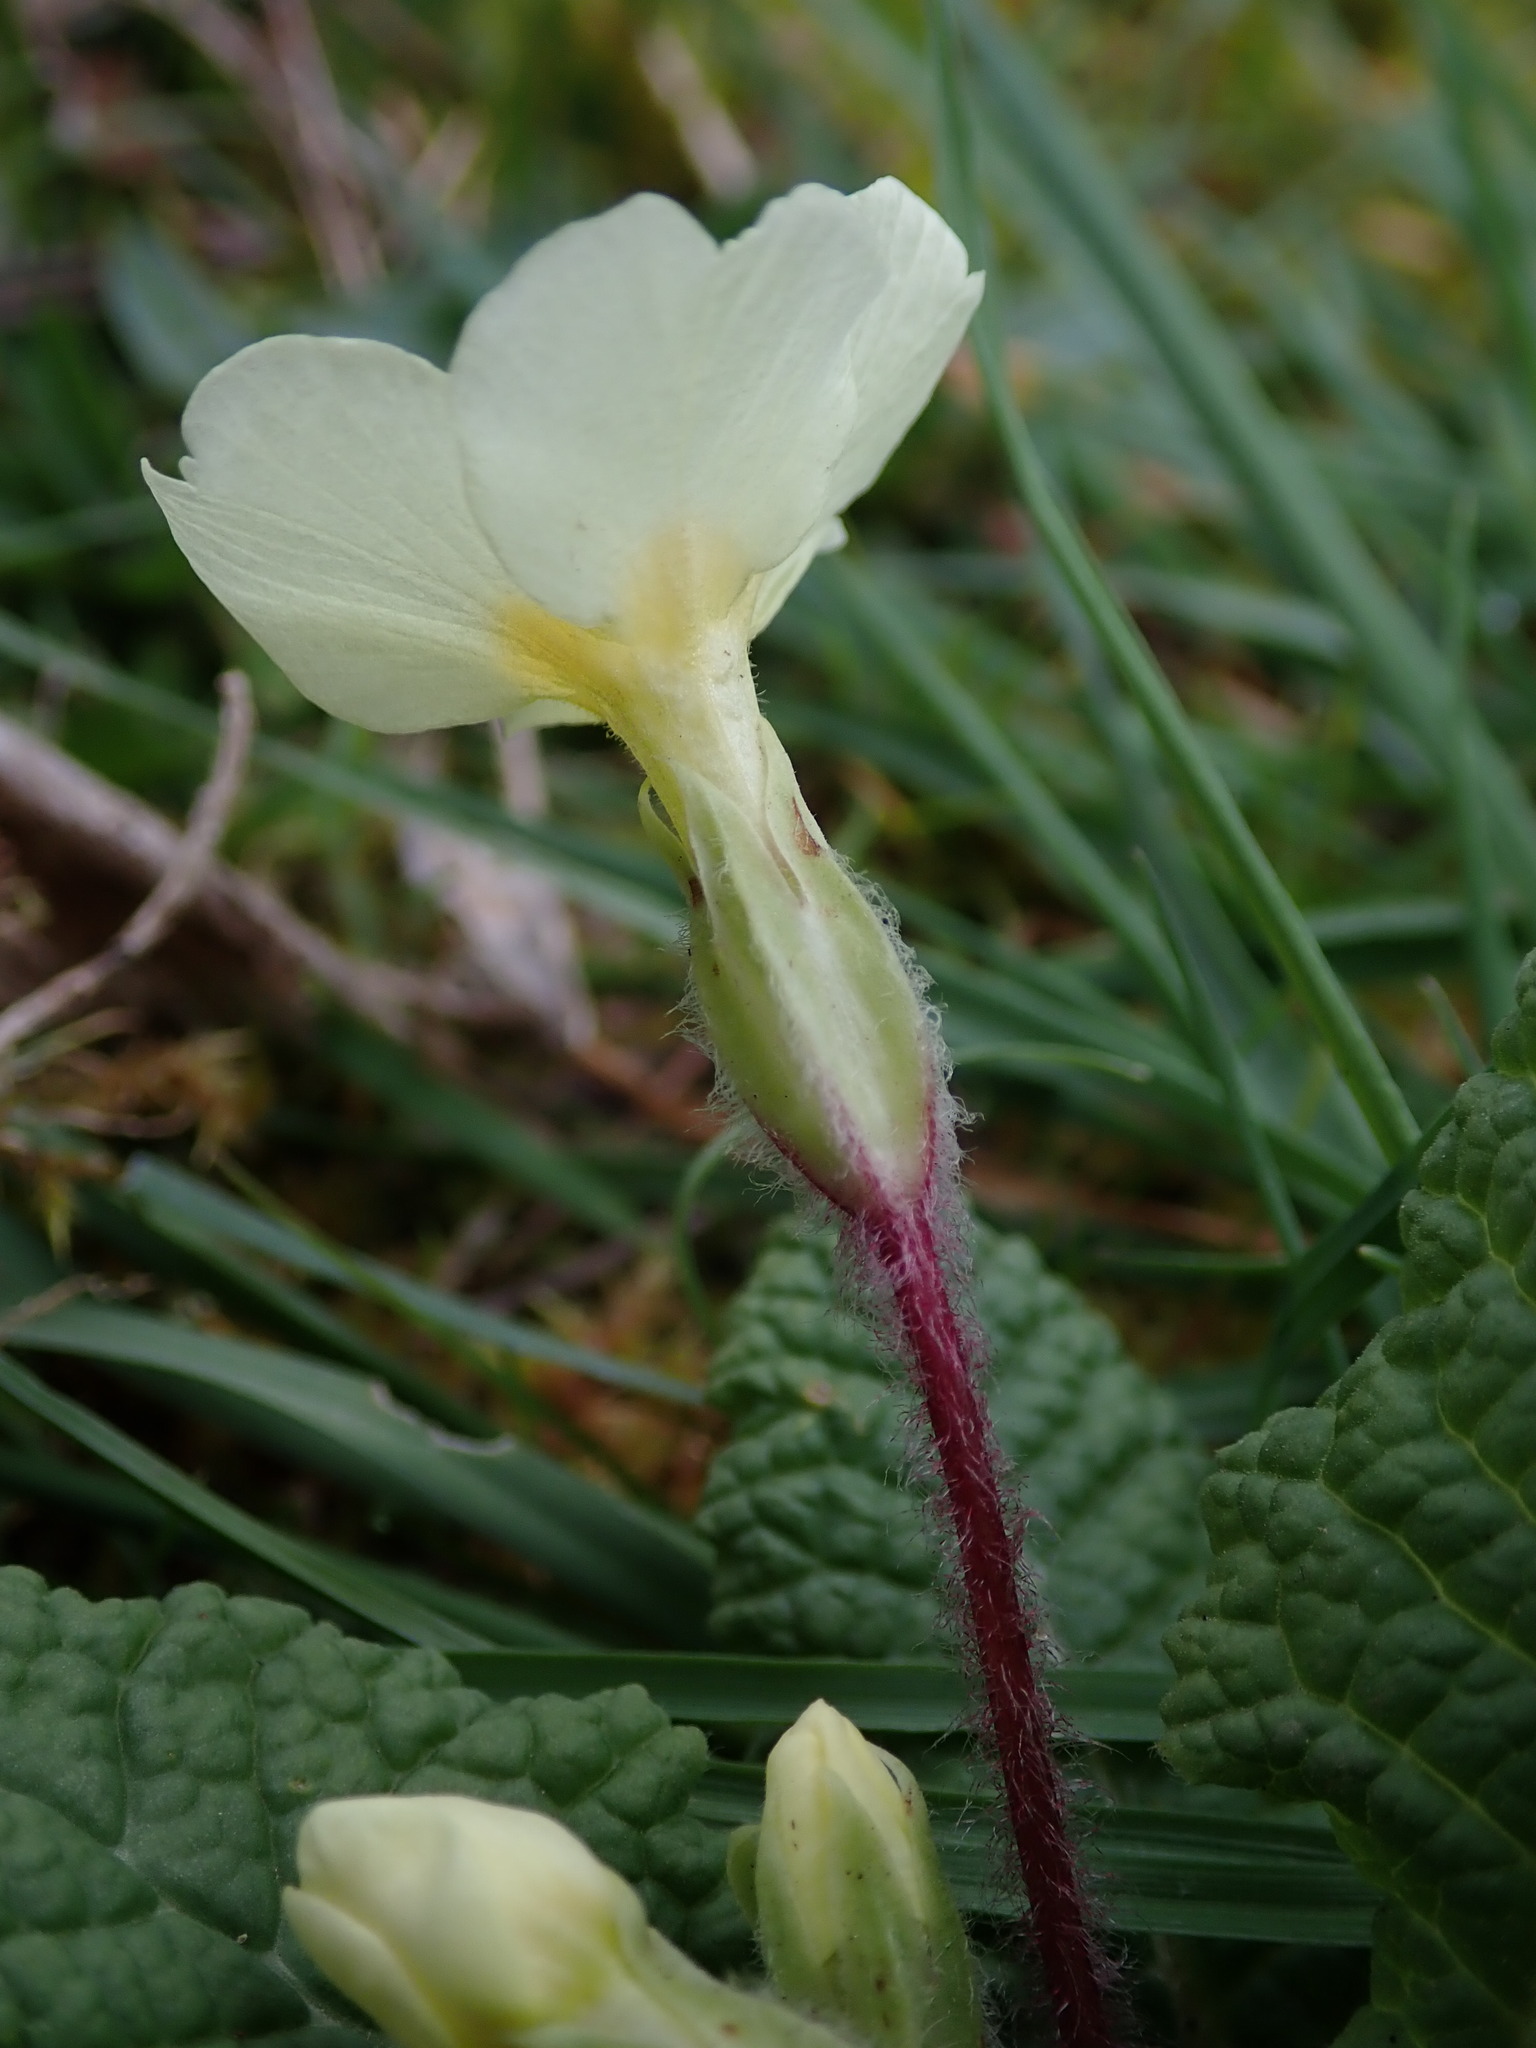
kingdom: Plantae
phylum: Tracheophyta
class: Magnoliopsida
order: Ericales
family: Primulaceae
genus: Primula
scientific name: Primula vulgaris
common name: Primrose
